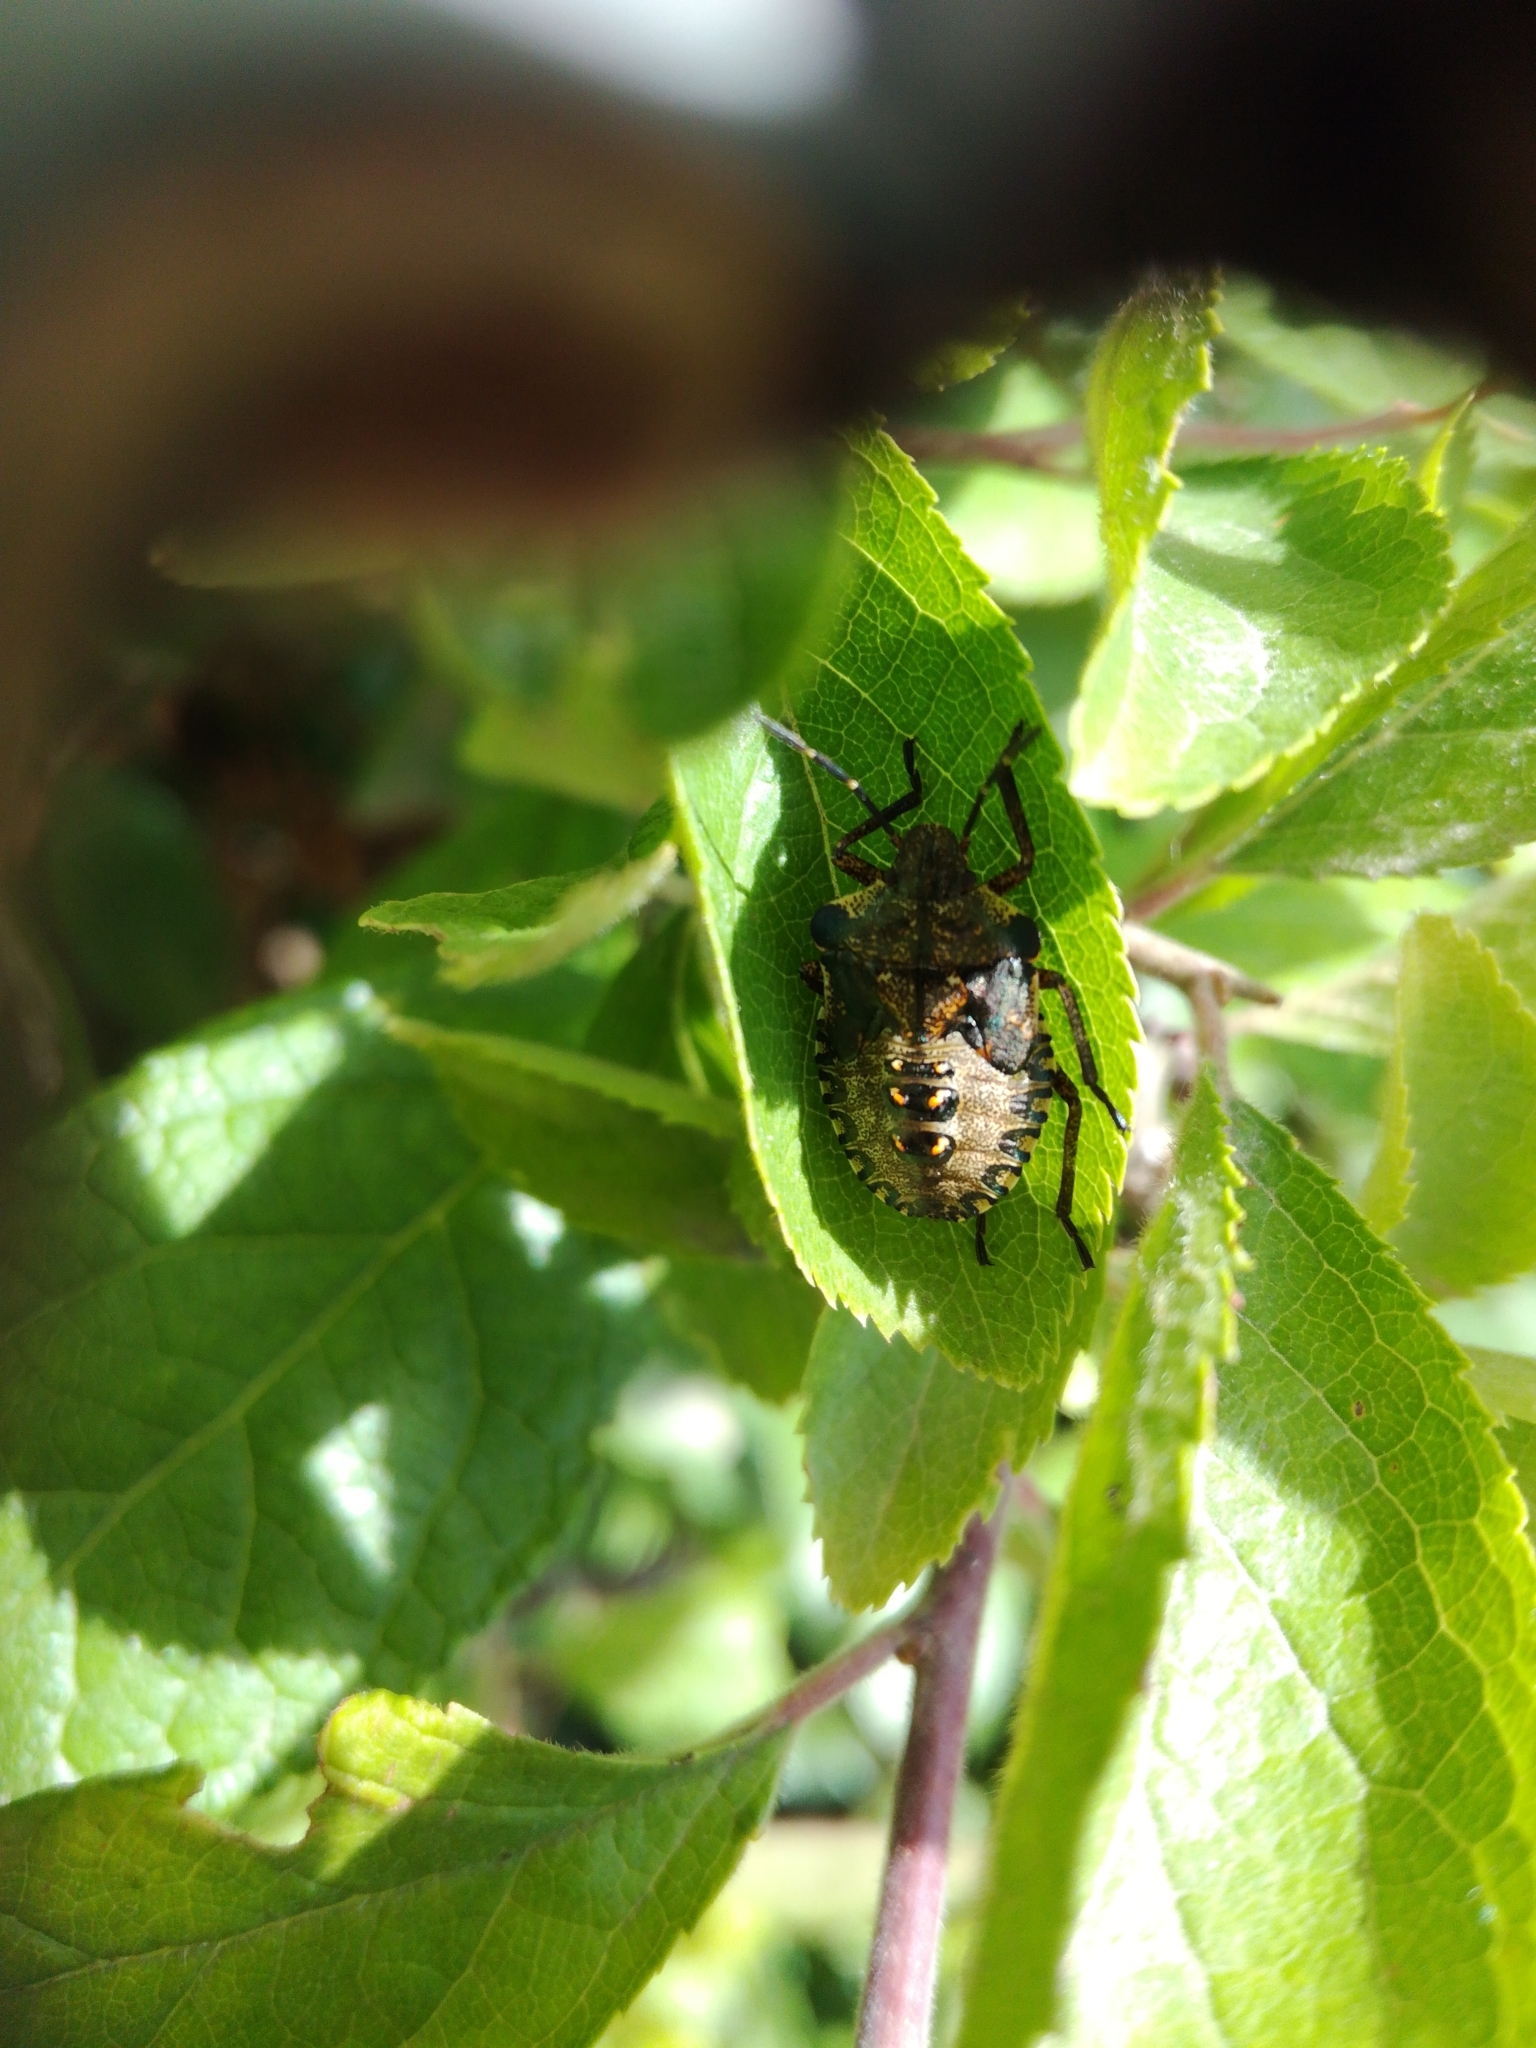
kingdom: Animalia
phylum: Arthropoda
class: Insecta
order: Hemiptera
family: Pentatomidae
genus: Pentatoma
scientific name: Pentatoma rufipes
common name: Forest bug
